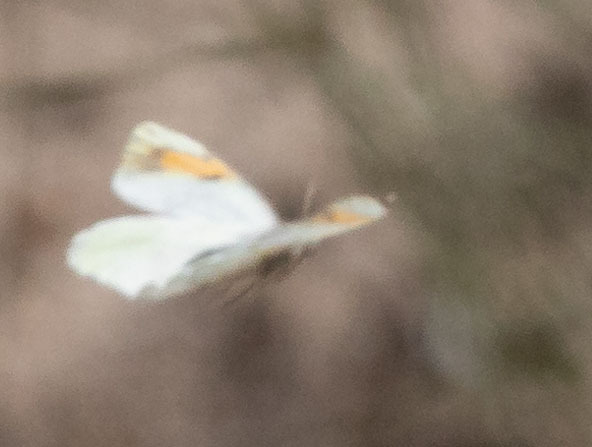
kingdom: Animalia
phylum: Arthropoda
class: Insecta
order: Lepidoptera
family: Pieridae
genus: Anthocharis
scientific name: Anthocharis sara
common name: Sara's orangetip
